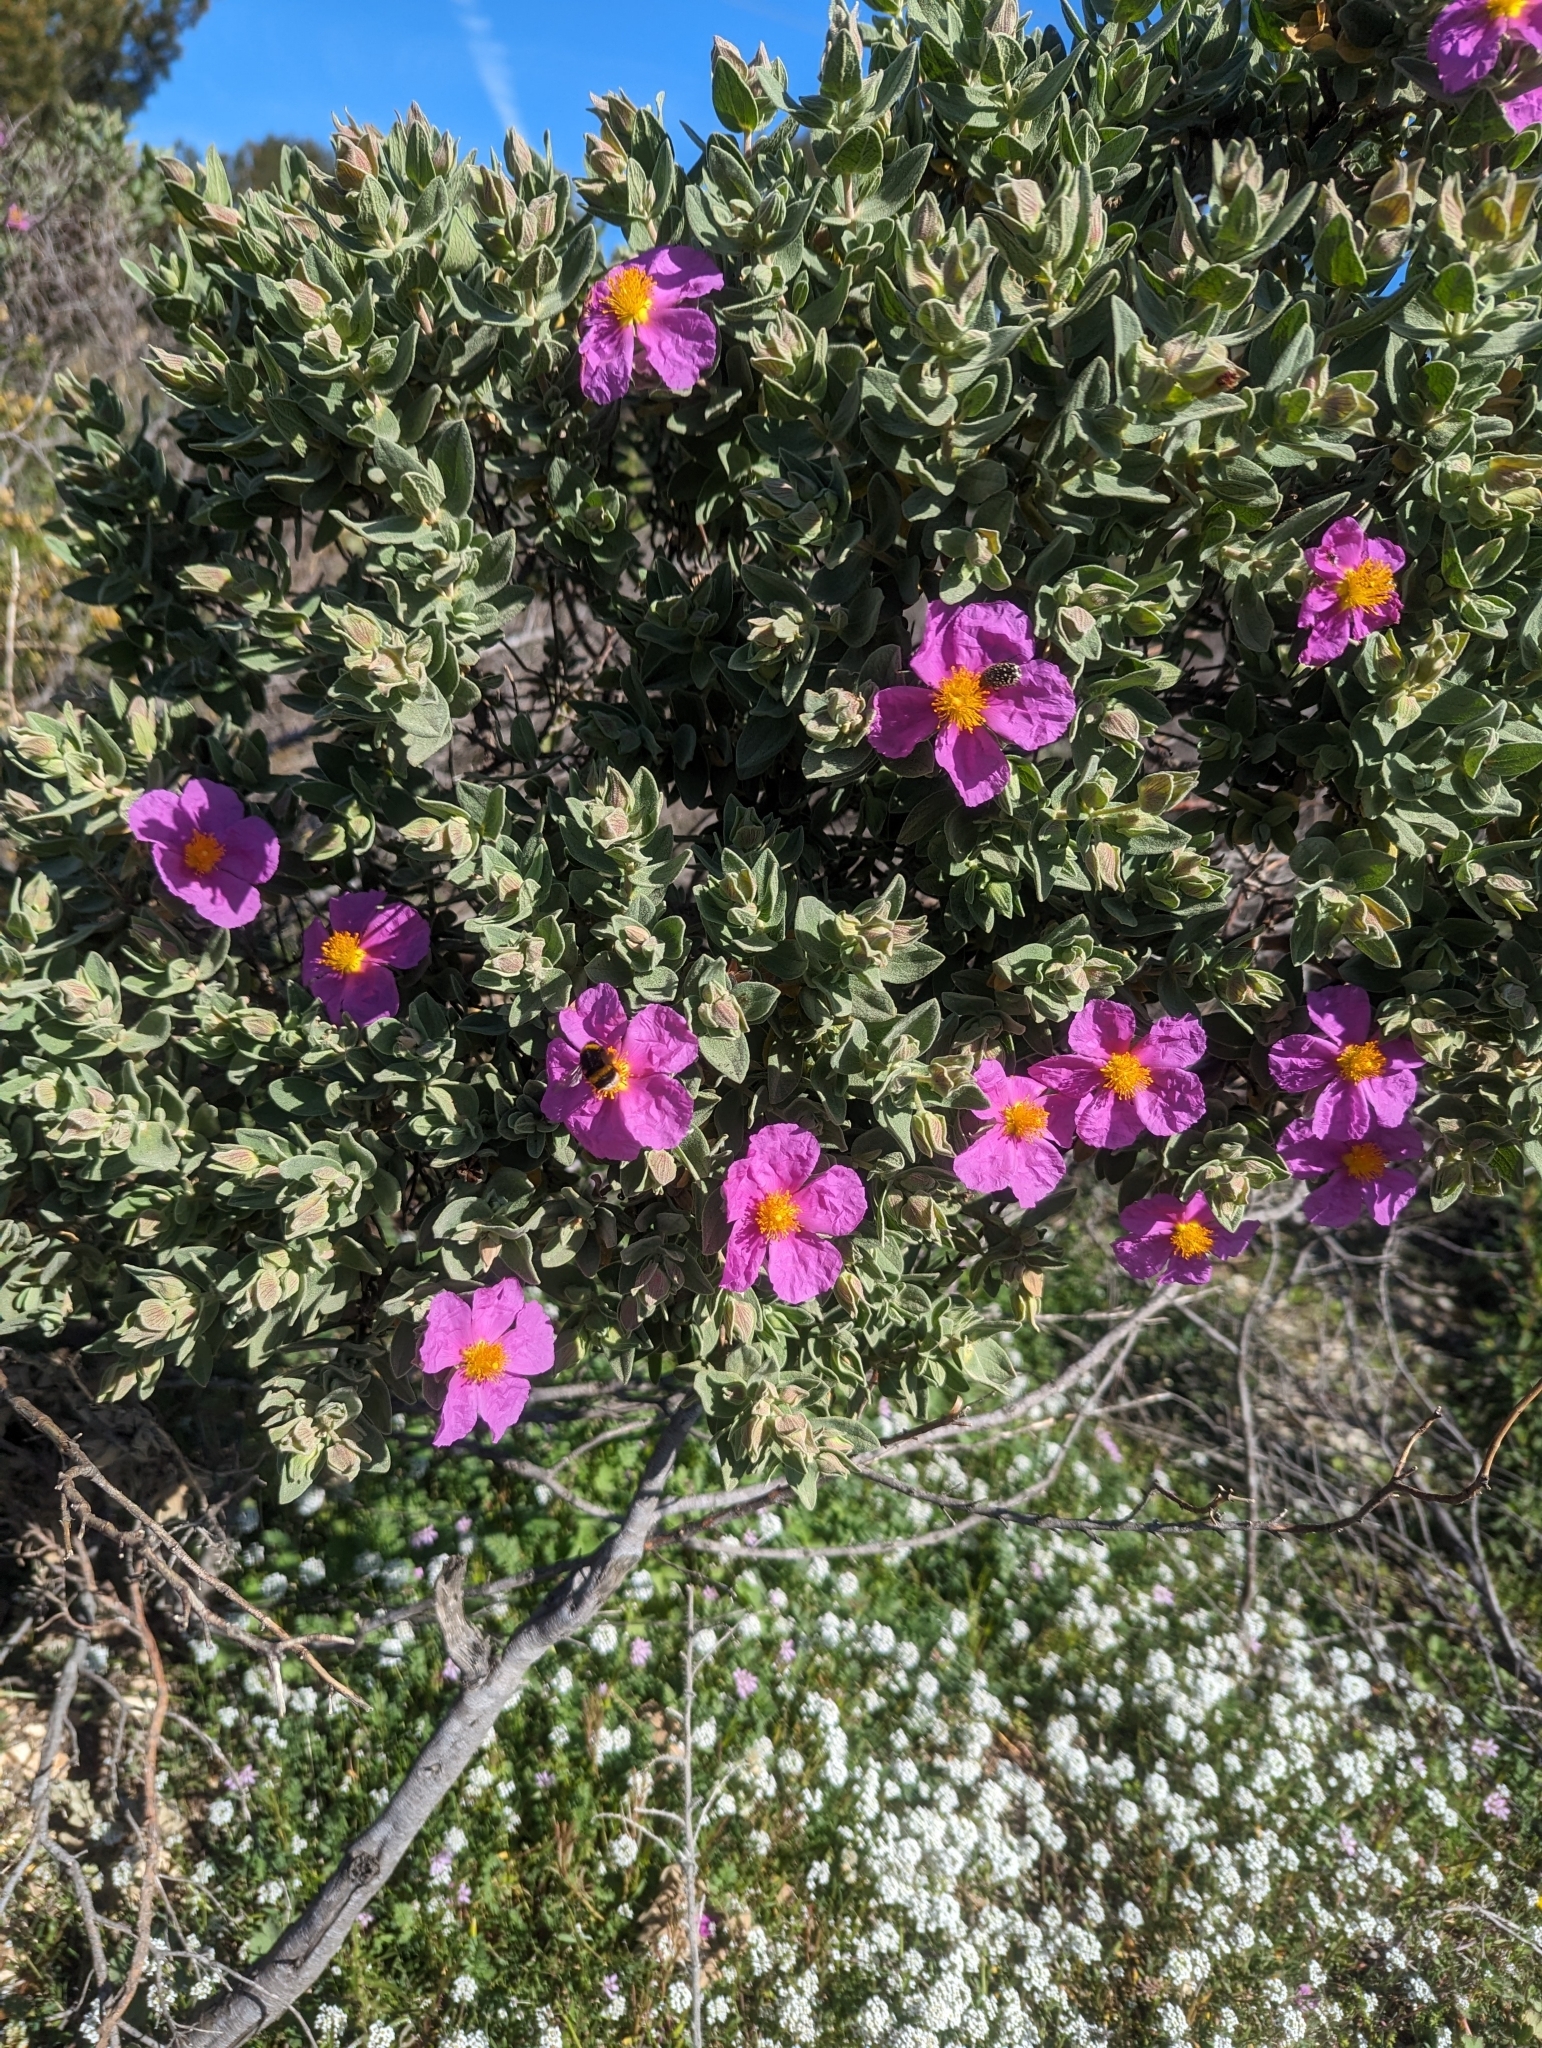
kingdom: Plantae
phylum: Tracheophyta
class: Magnoliopsida
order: Malvales
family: Cistaceae
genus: Cistus
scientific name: Cistus albidus
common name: White-leaf rock-rose
